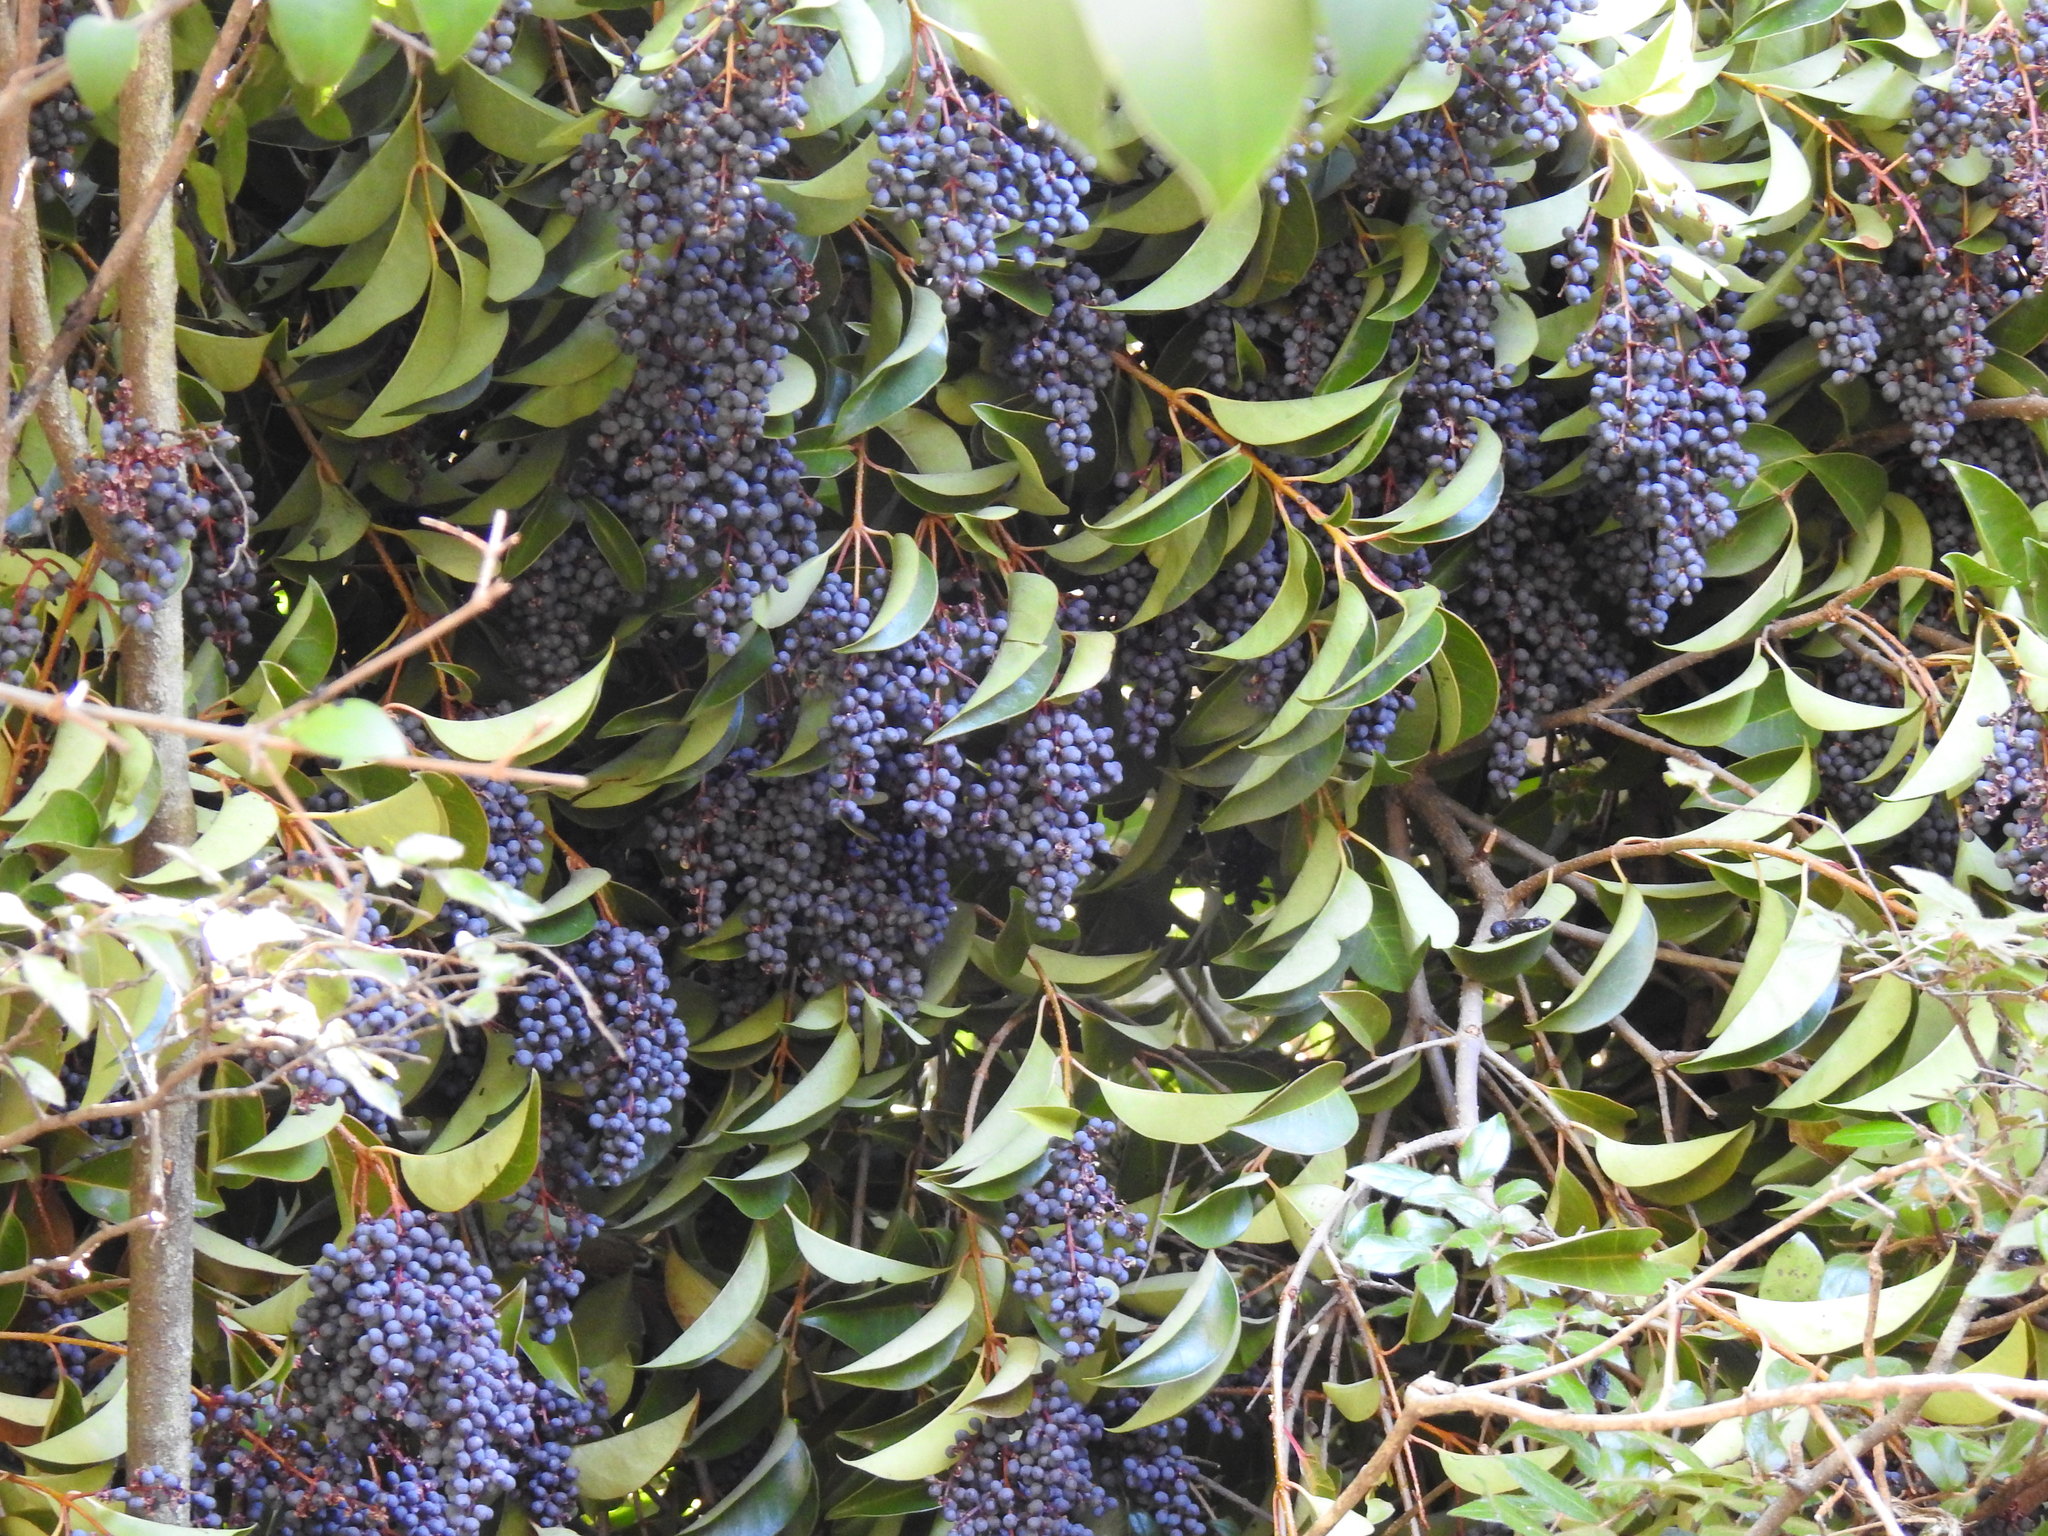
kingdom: Plantae
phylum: Tracheophyta
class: Magnoliopsida
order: Lamiales
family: Oleaceae
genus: Ligustrum
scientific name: Ligustrum lucidum
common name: Glossy privet
